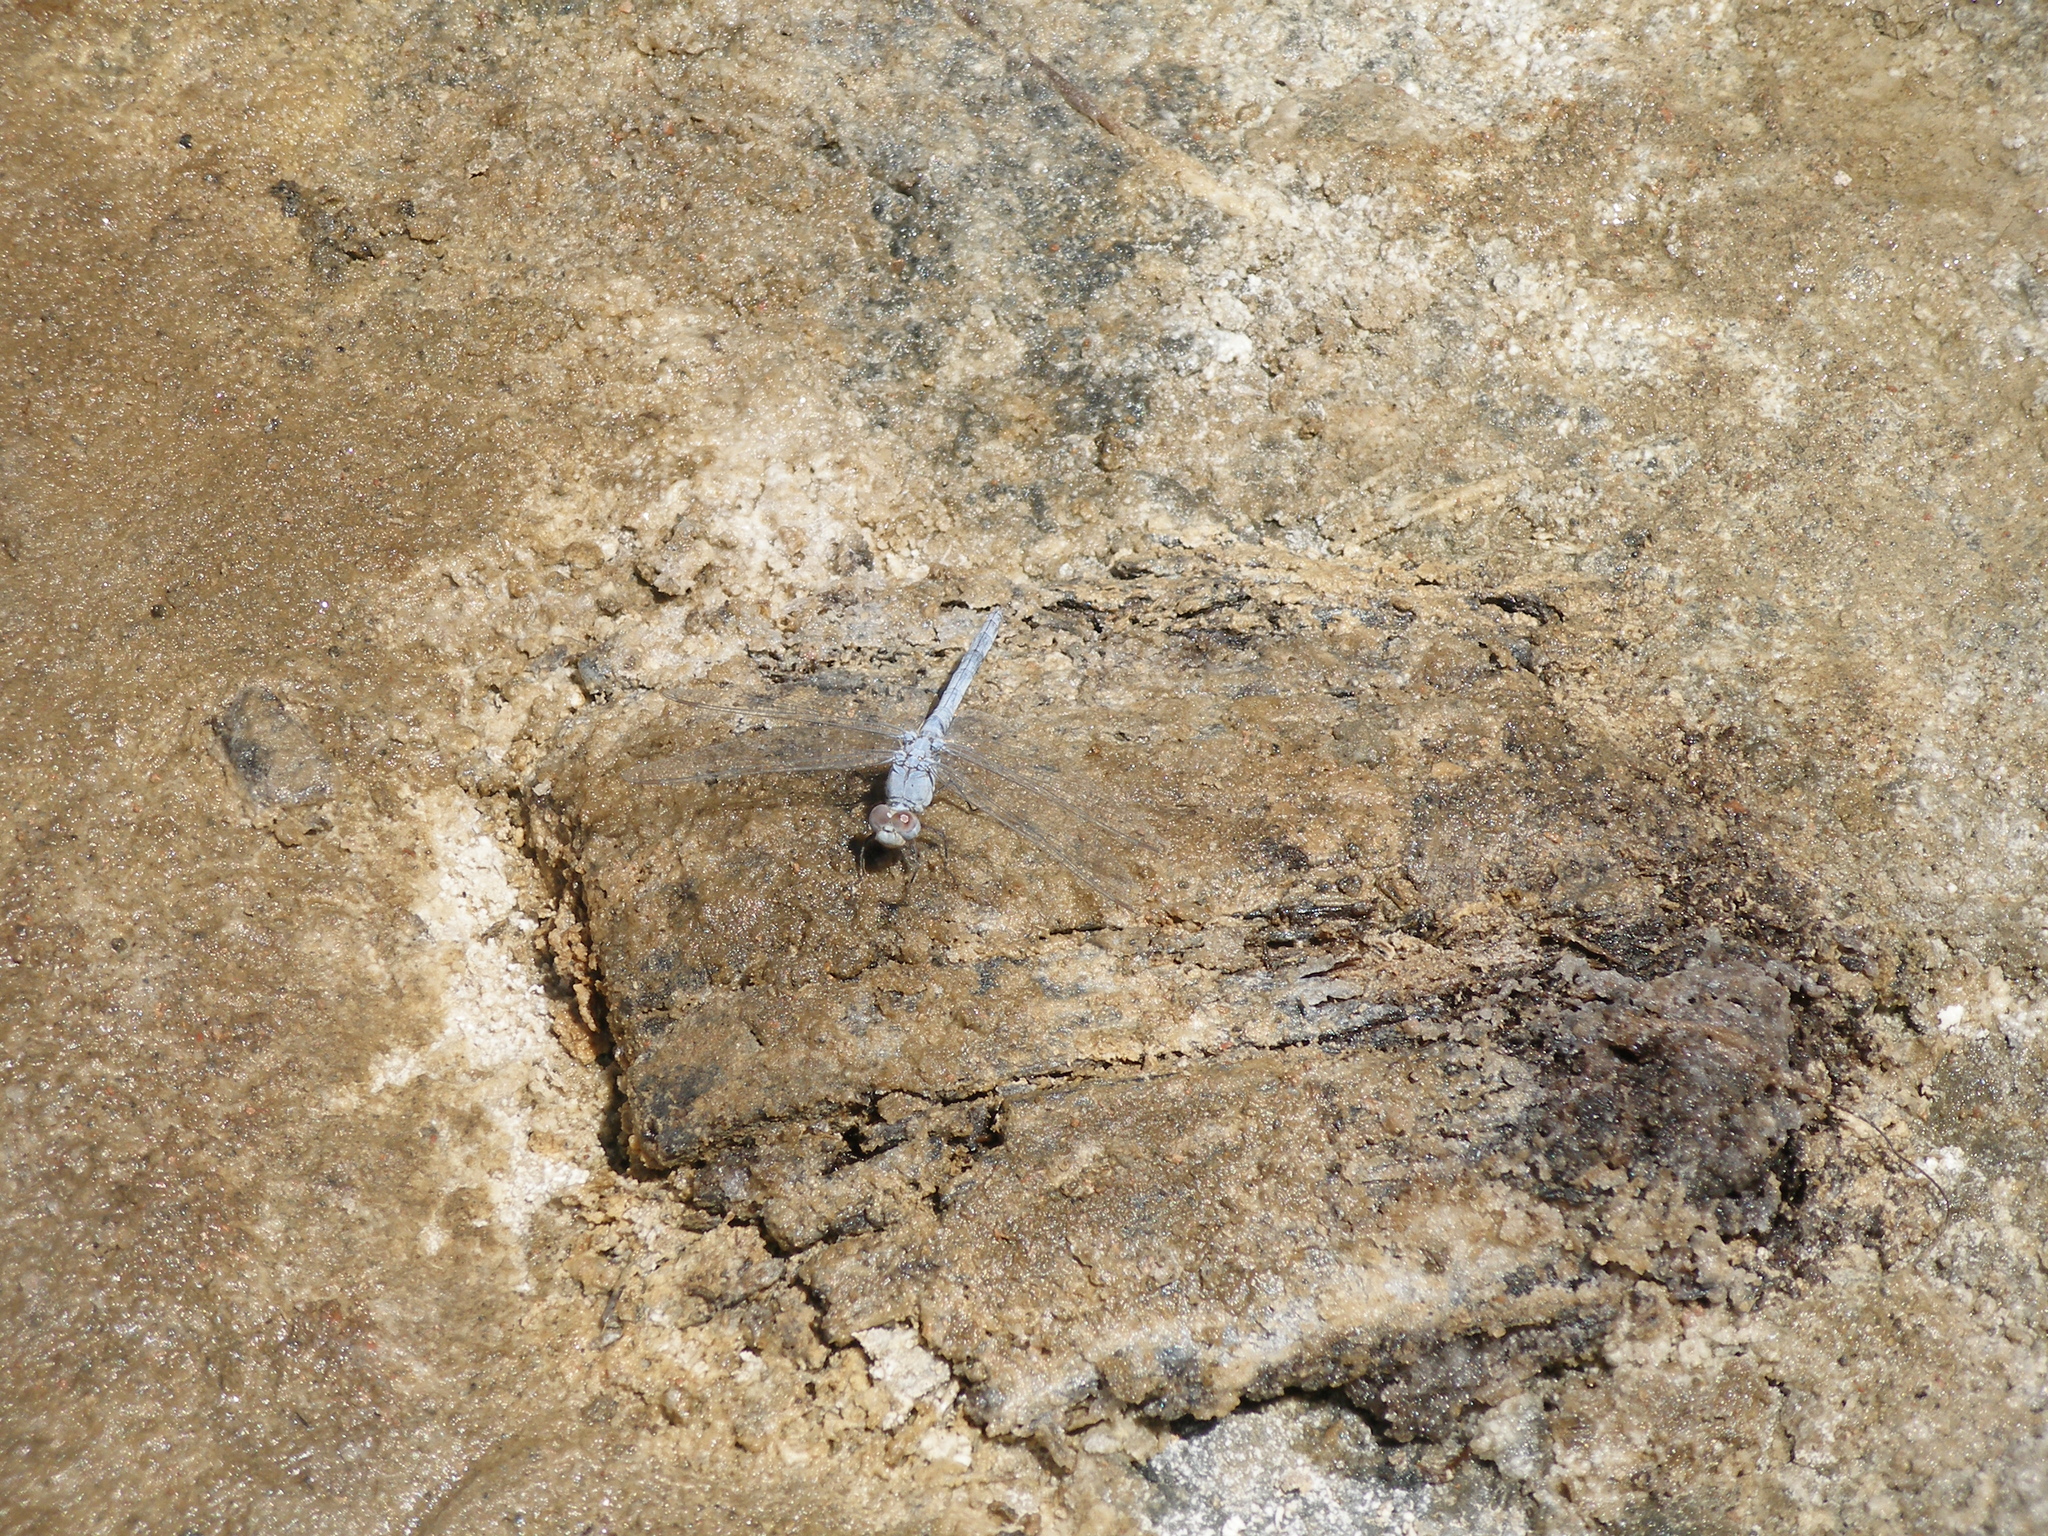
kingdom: Animalia
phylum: Arthropoda
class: Insecta
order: Odonata
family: Libellulidae
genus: Orthetrum
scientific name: Orthetrum ransonnetii
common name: Desert skimmer
